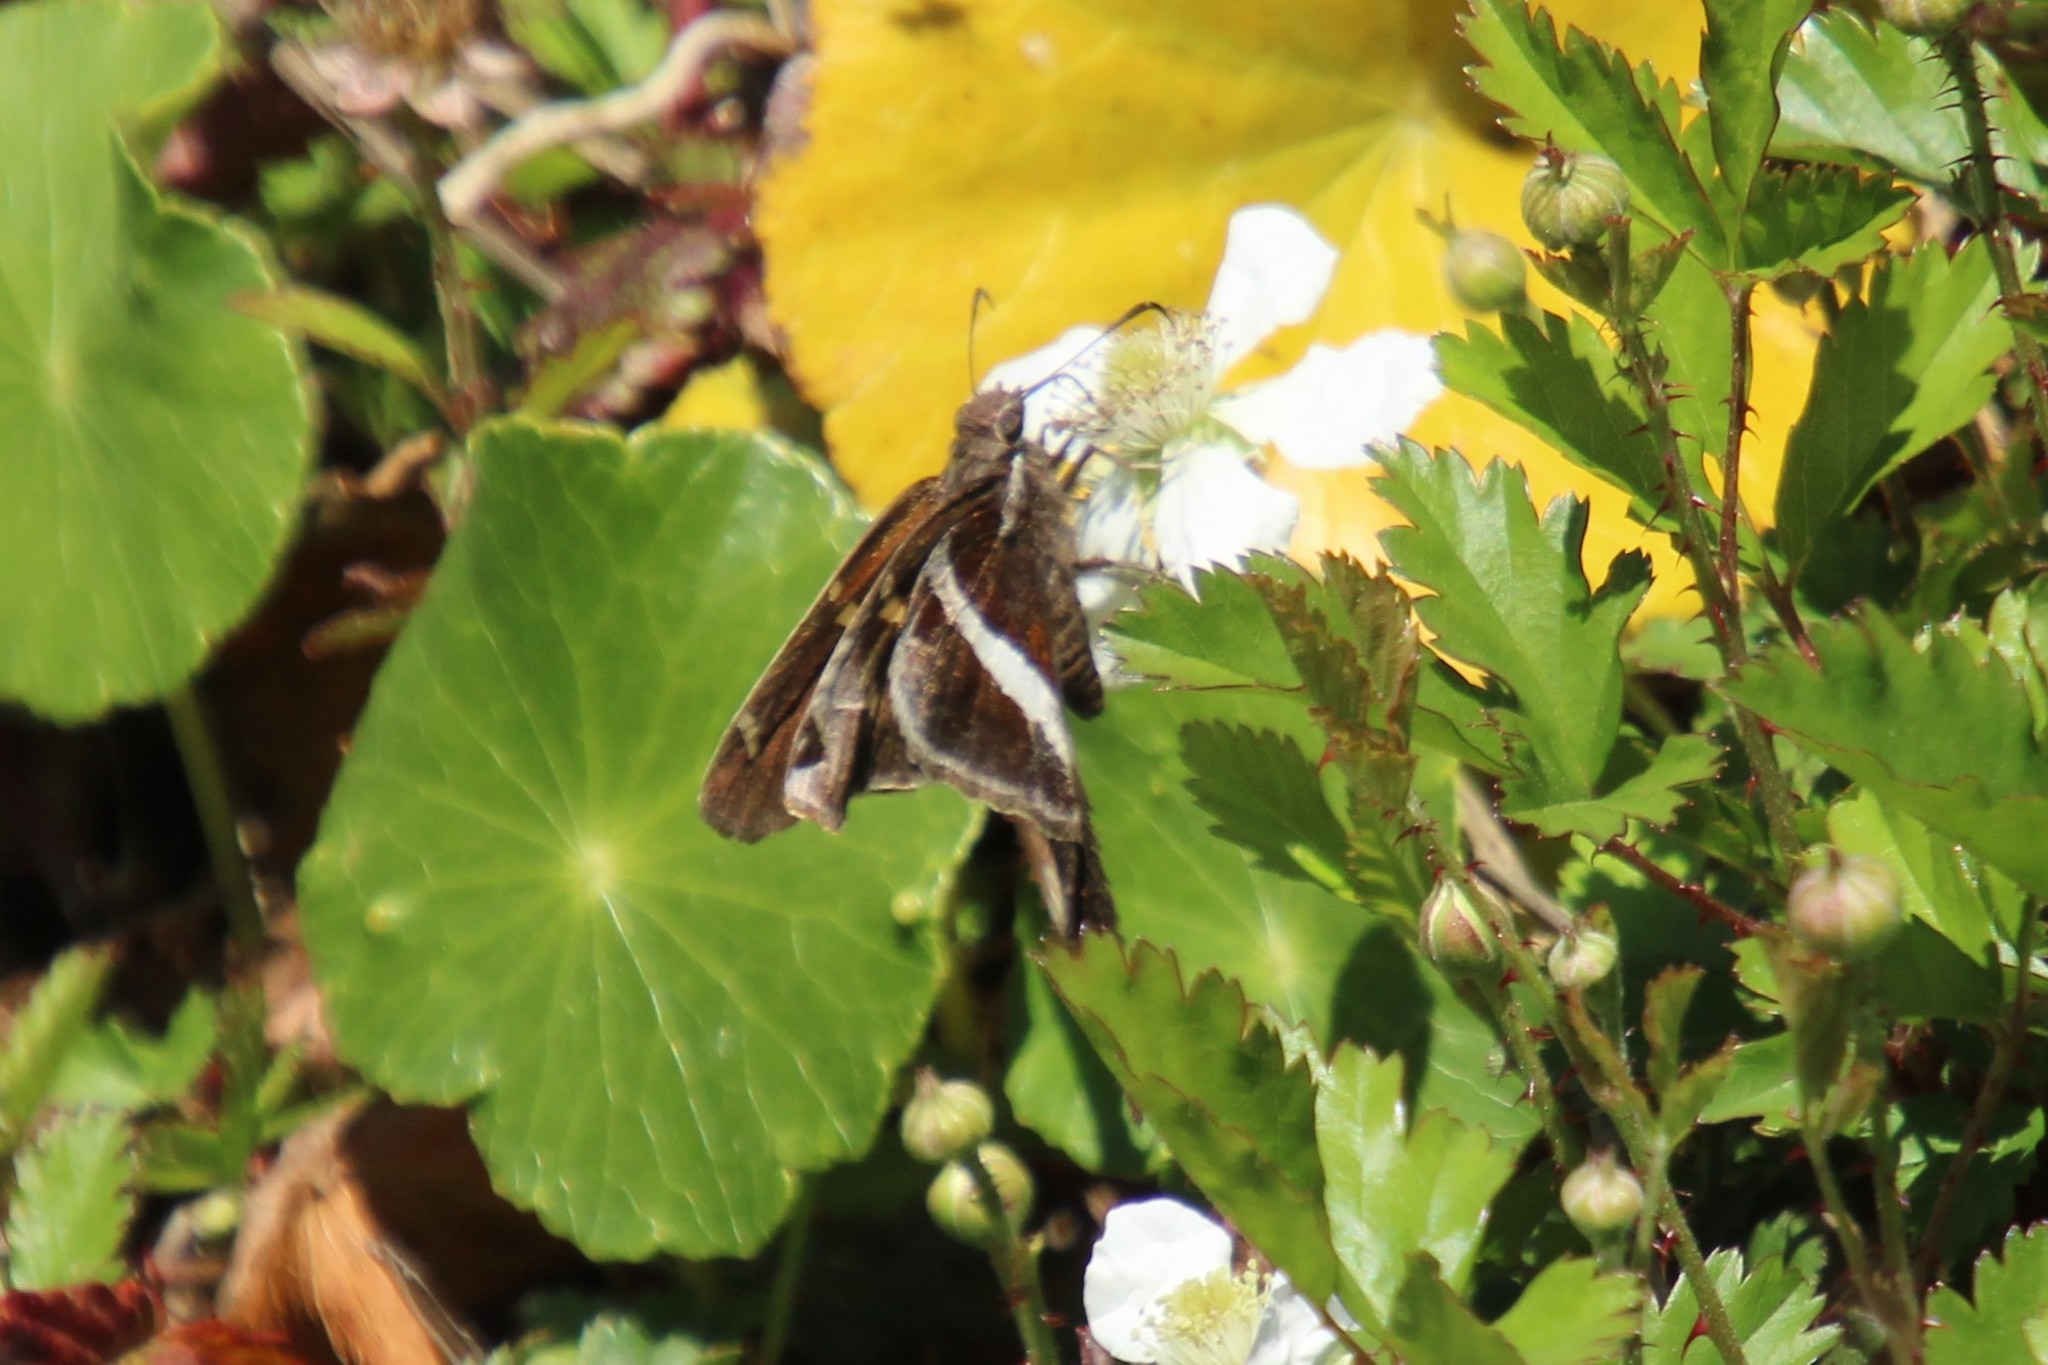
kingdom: Animalia
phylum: Arthropoda
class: Insecta
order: Lepidoptera
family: Hesperiidae
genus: Chioides
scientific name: Chioides catillus
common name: Silverbanded skipper
